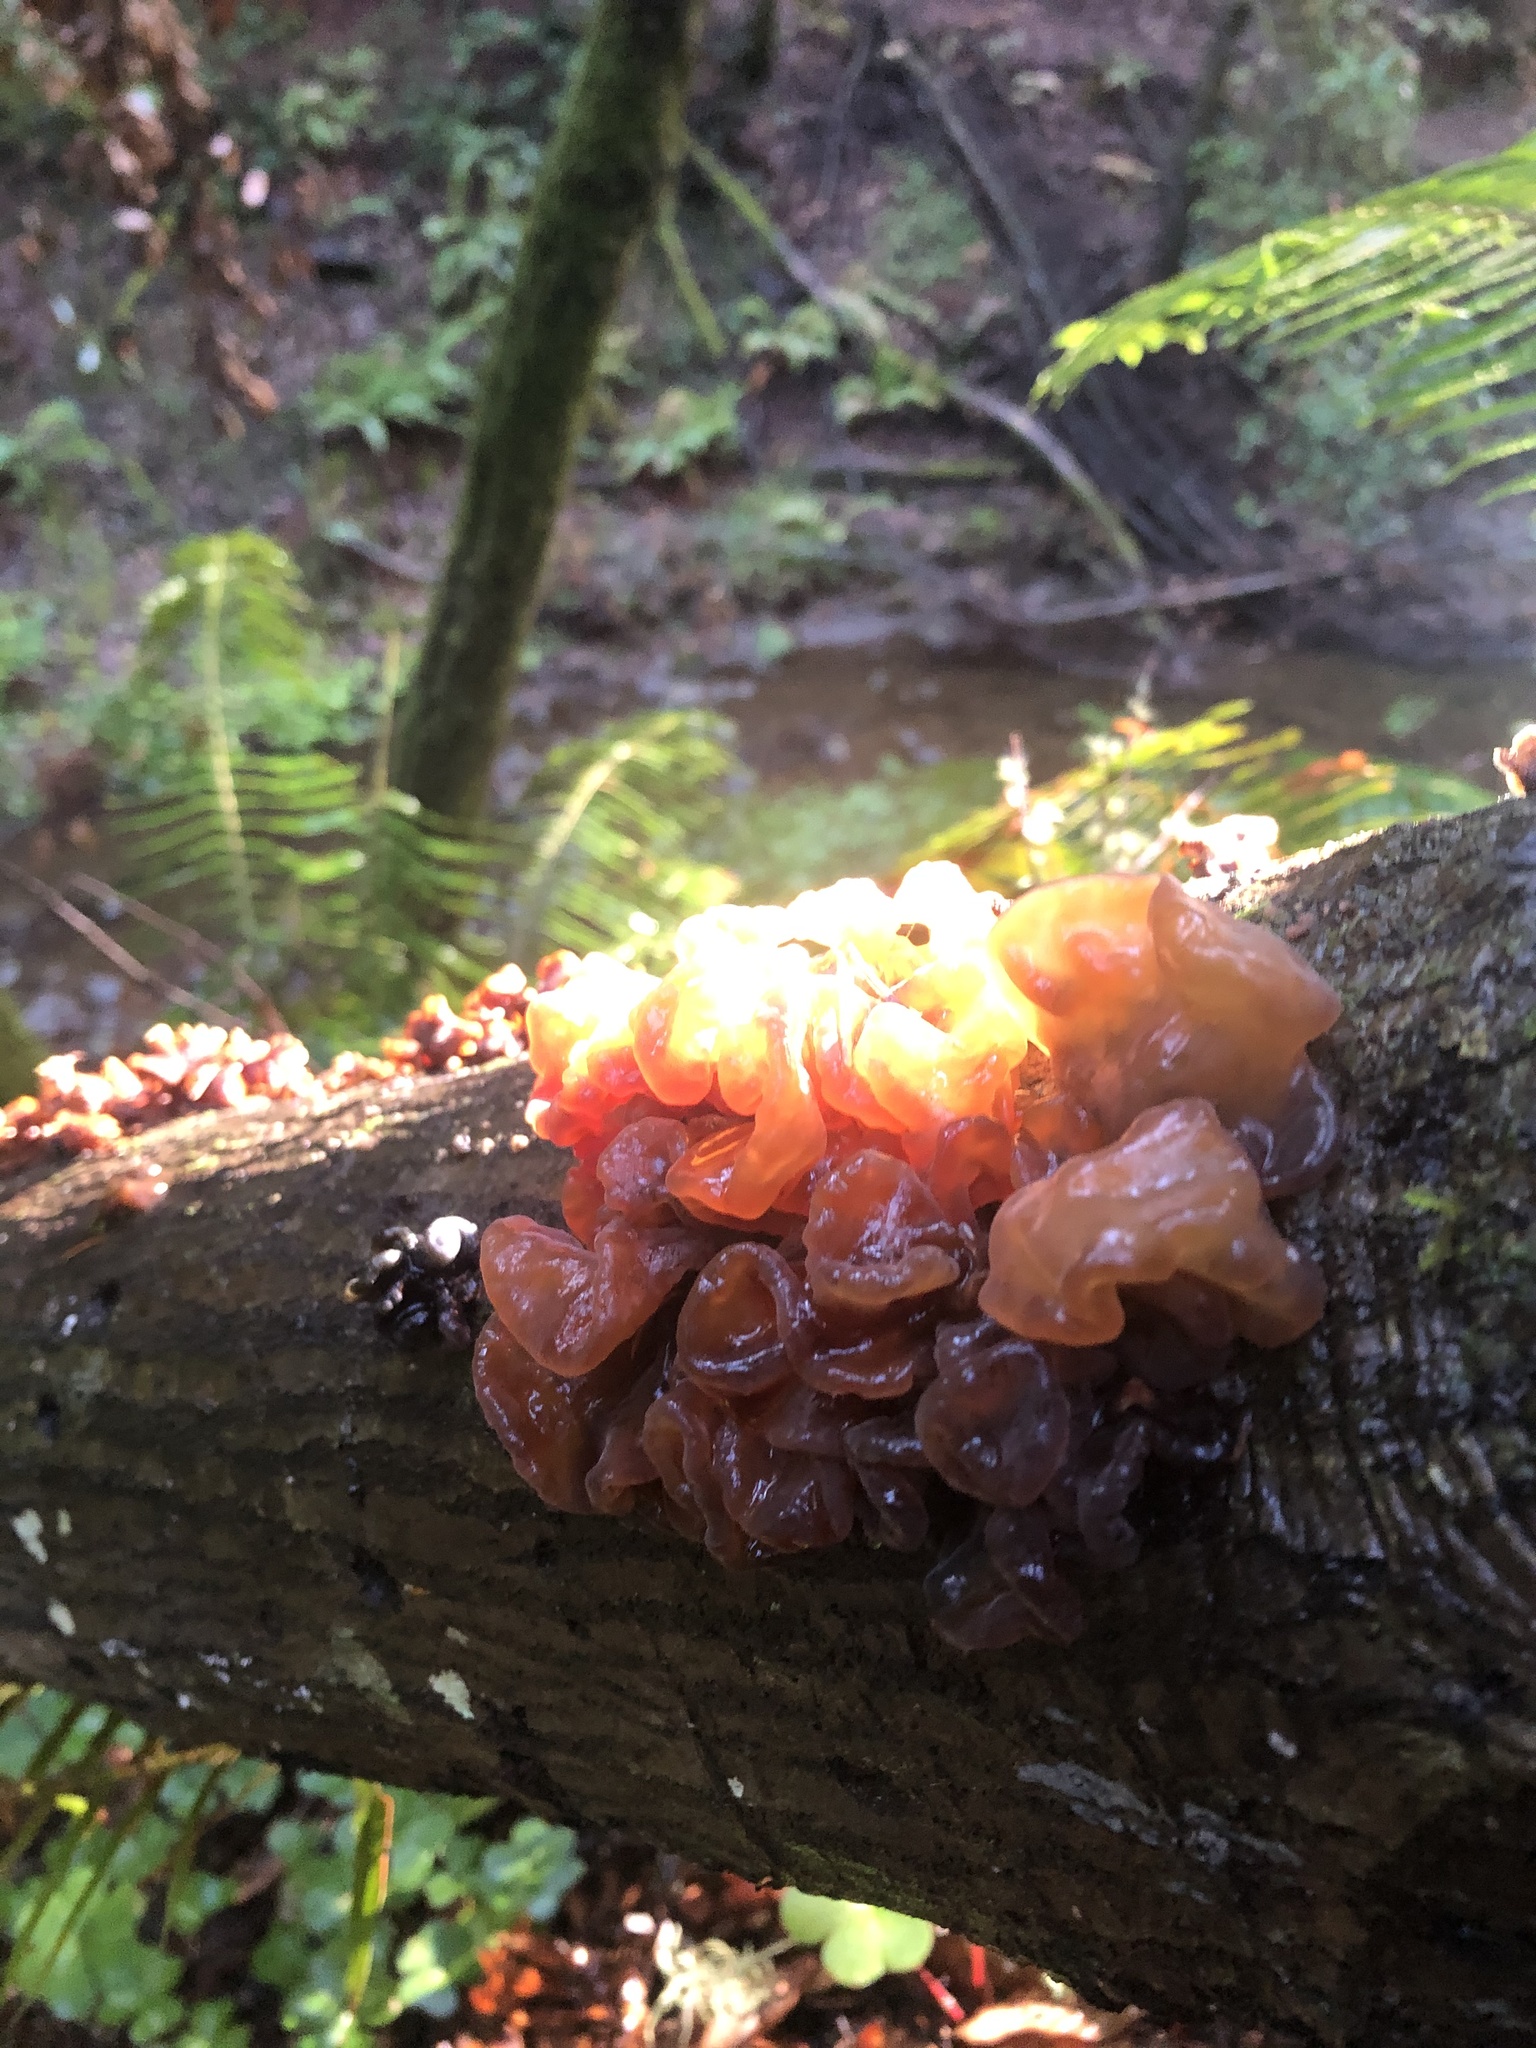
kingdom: Fungi
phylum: Ascomycota
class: Leotiomycetes
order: Helotiales
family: Gelatinodiscaceae
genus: Ascocoryne
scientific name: Ascocoryne sarcoides
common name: Purple jellydisc
